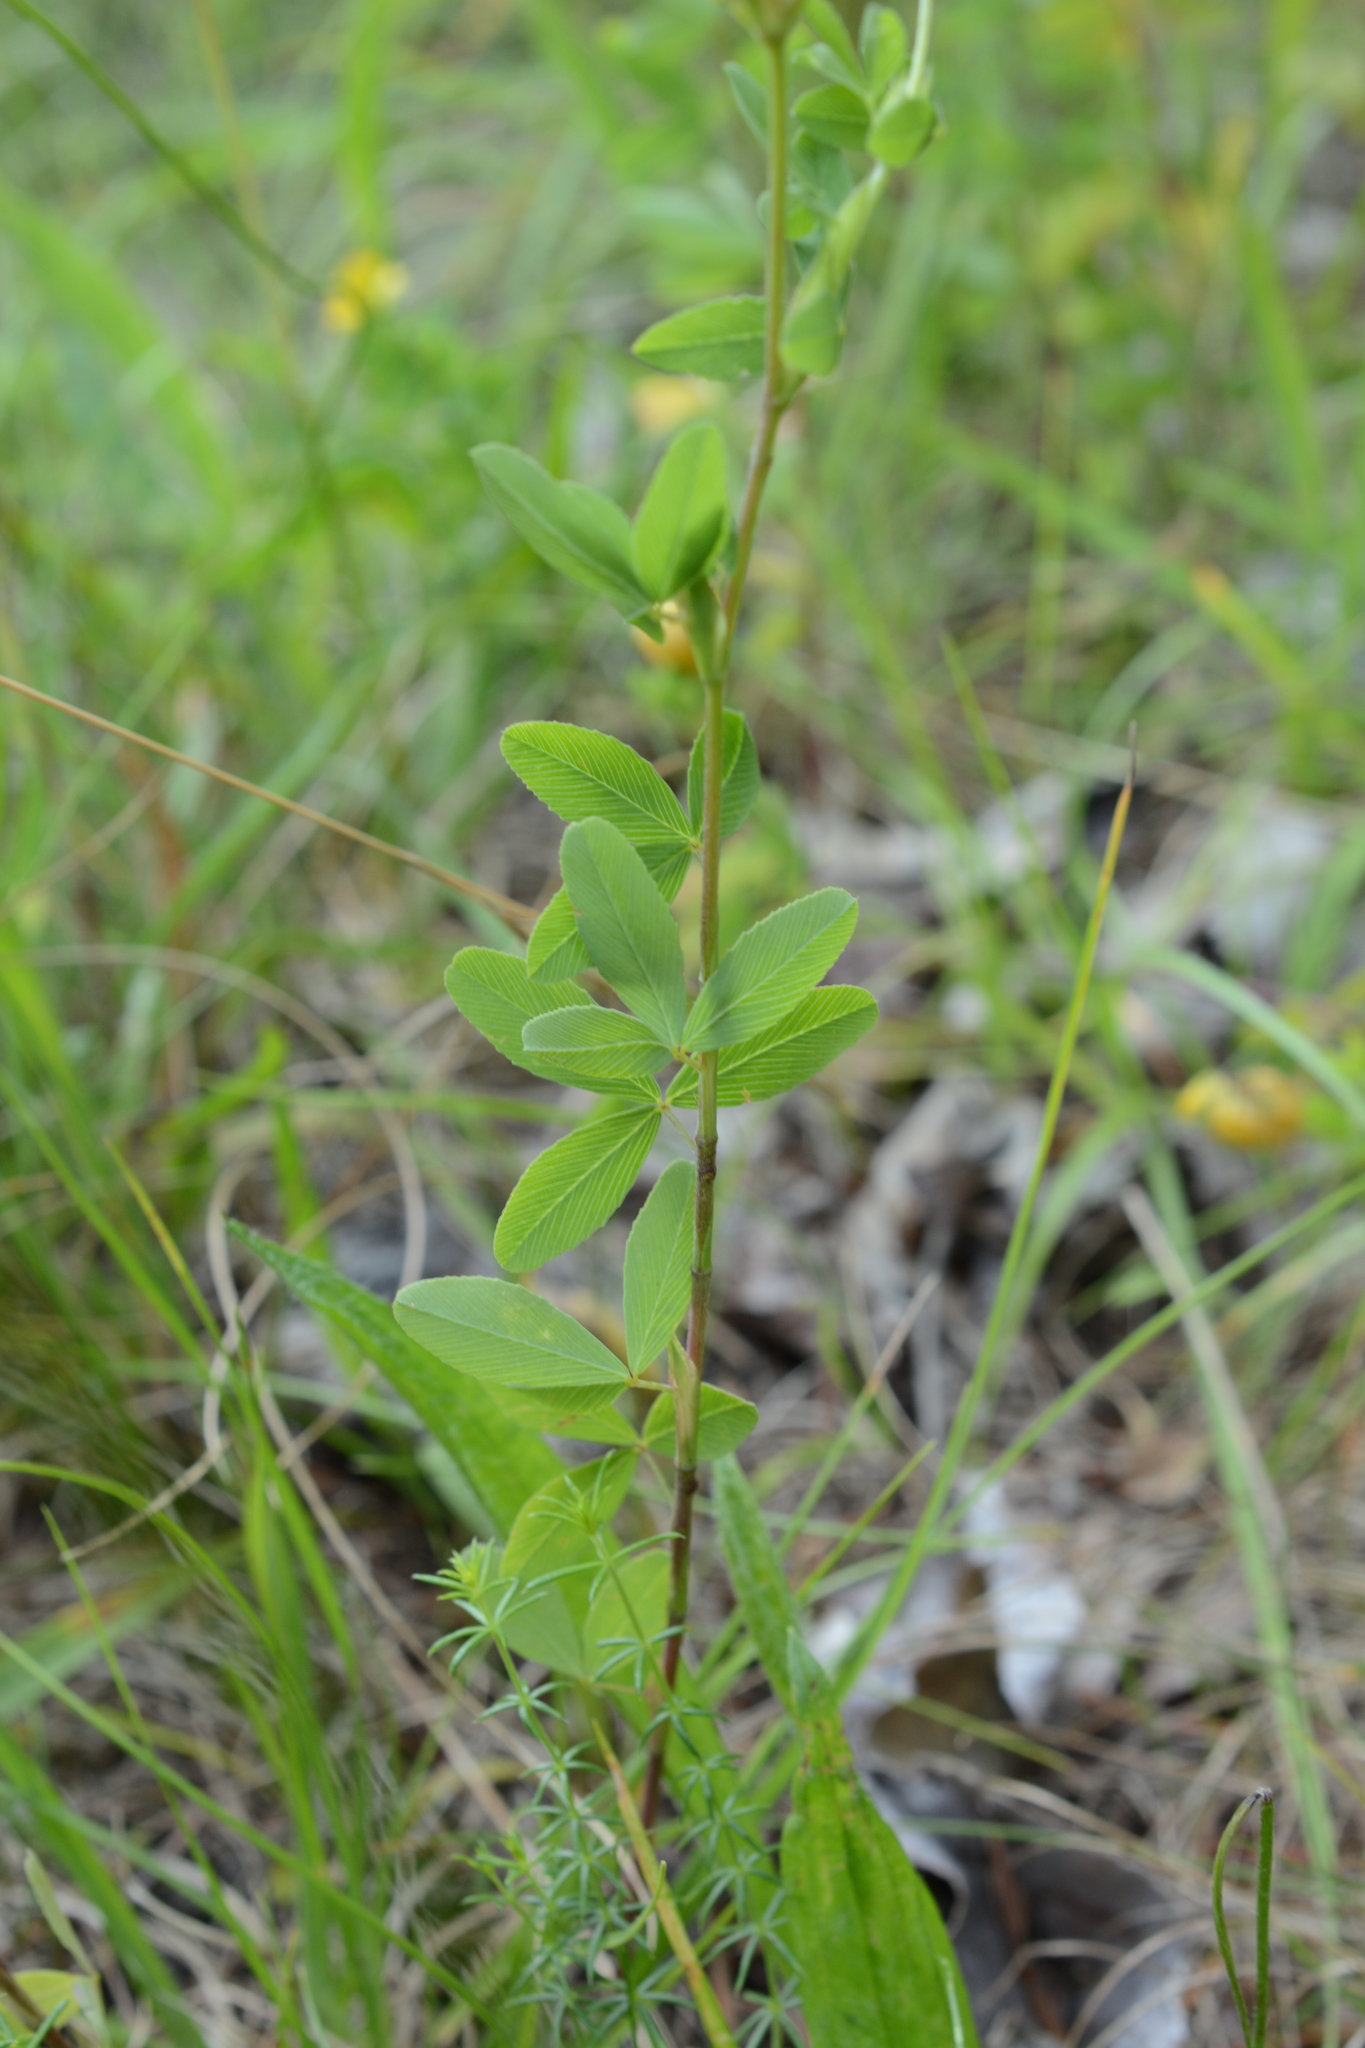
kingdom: Plantae
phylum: Tracheophyta
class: Magnoliopsida
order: Fabales
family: Fabaceae
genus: Trifolium
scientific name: Trifolium aureum
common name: Golden clover
